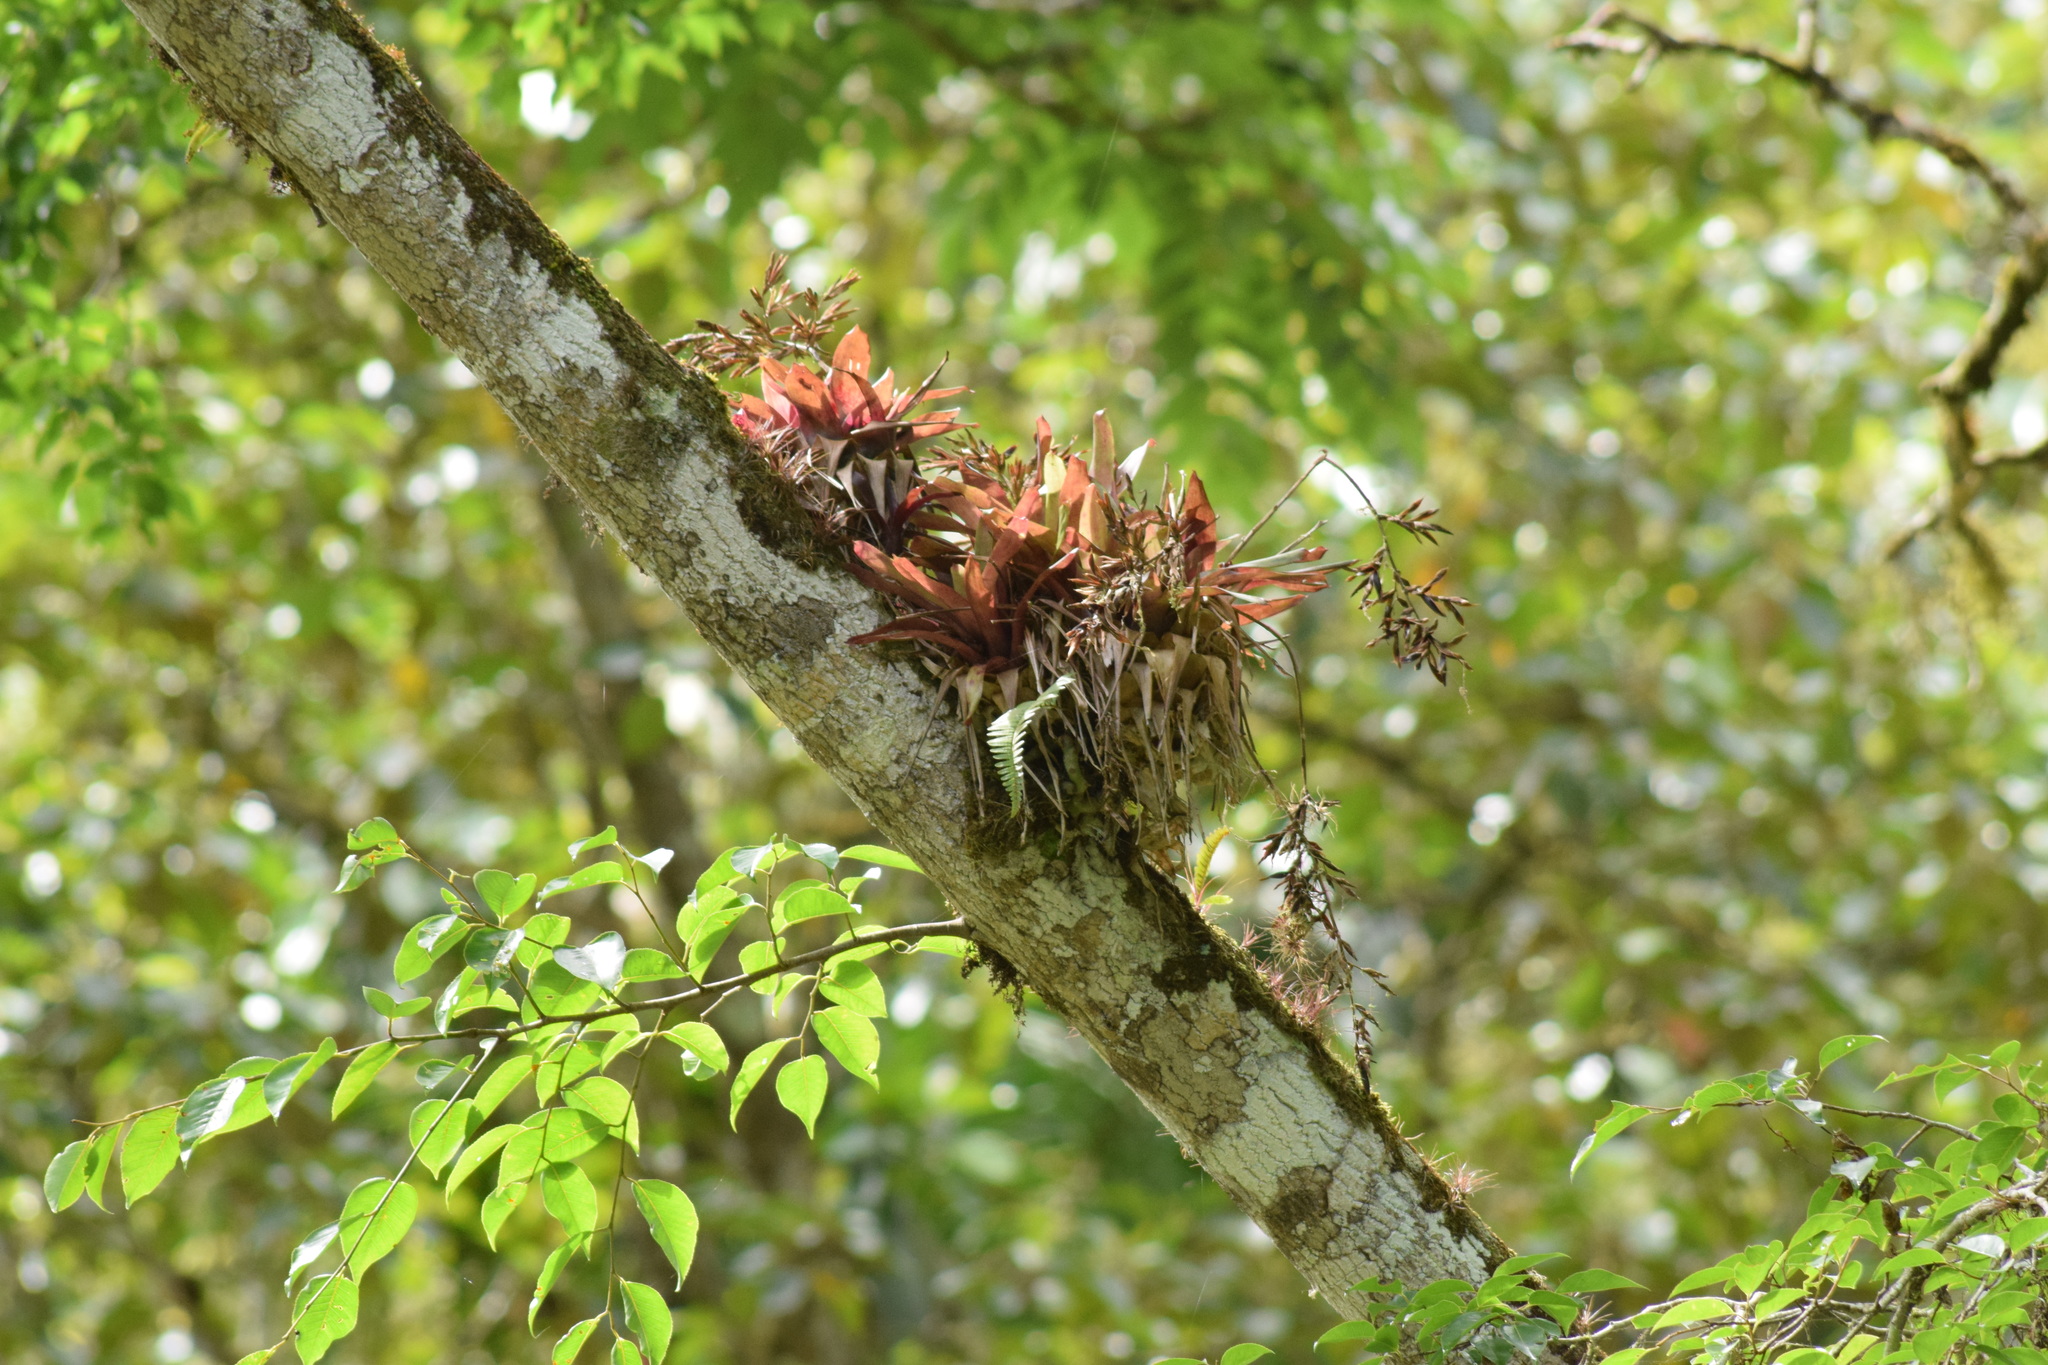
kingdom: Plantae
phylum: Tracheophyta
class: Liliopsida
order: Poales
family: Bromeliaceae
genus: Vriesea
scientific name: Vriesea rodigasiana
